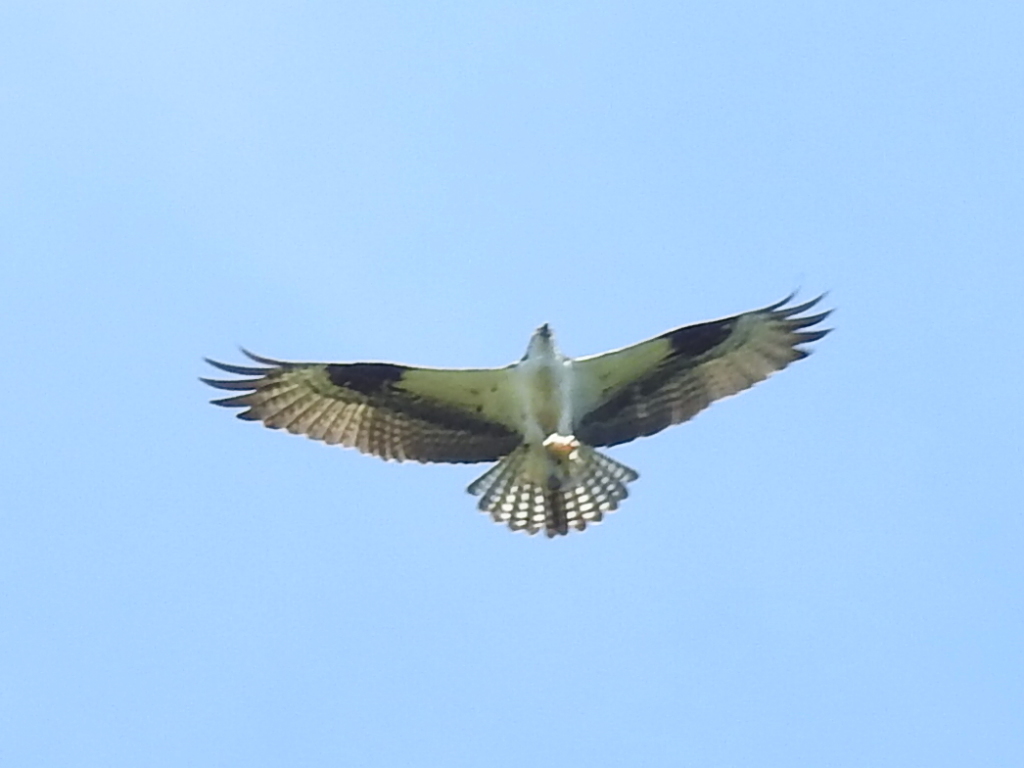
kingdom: Animalia
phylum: Chordata
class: Aves
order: Accipitriformes
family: Pandionidae
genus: Pandion
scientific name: Pandion haliaetus
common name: Osprey
